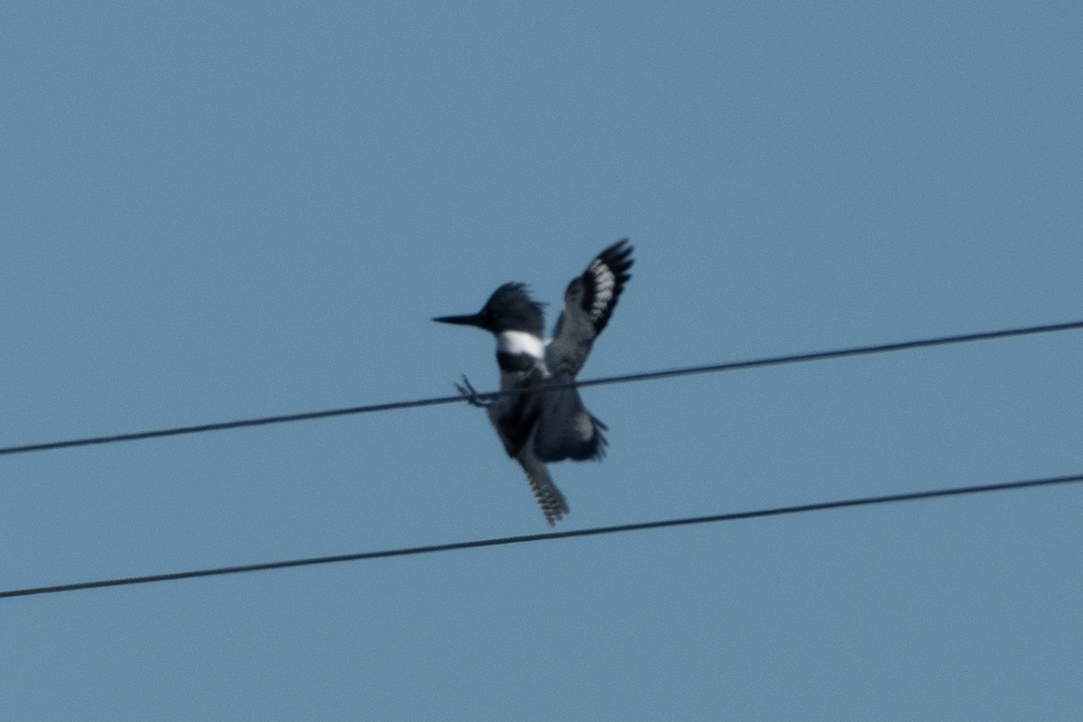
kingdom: Animalia
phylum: Chordata
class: Aves
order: Coraciiformes
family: Alcedinidae
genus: Megaceryle
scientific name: Megaceryle alcyon
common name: Belted kingfisher
